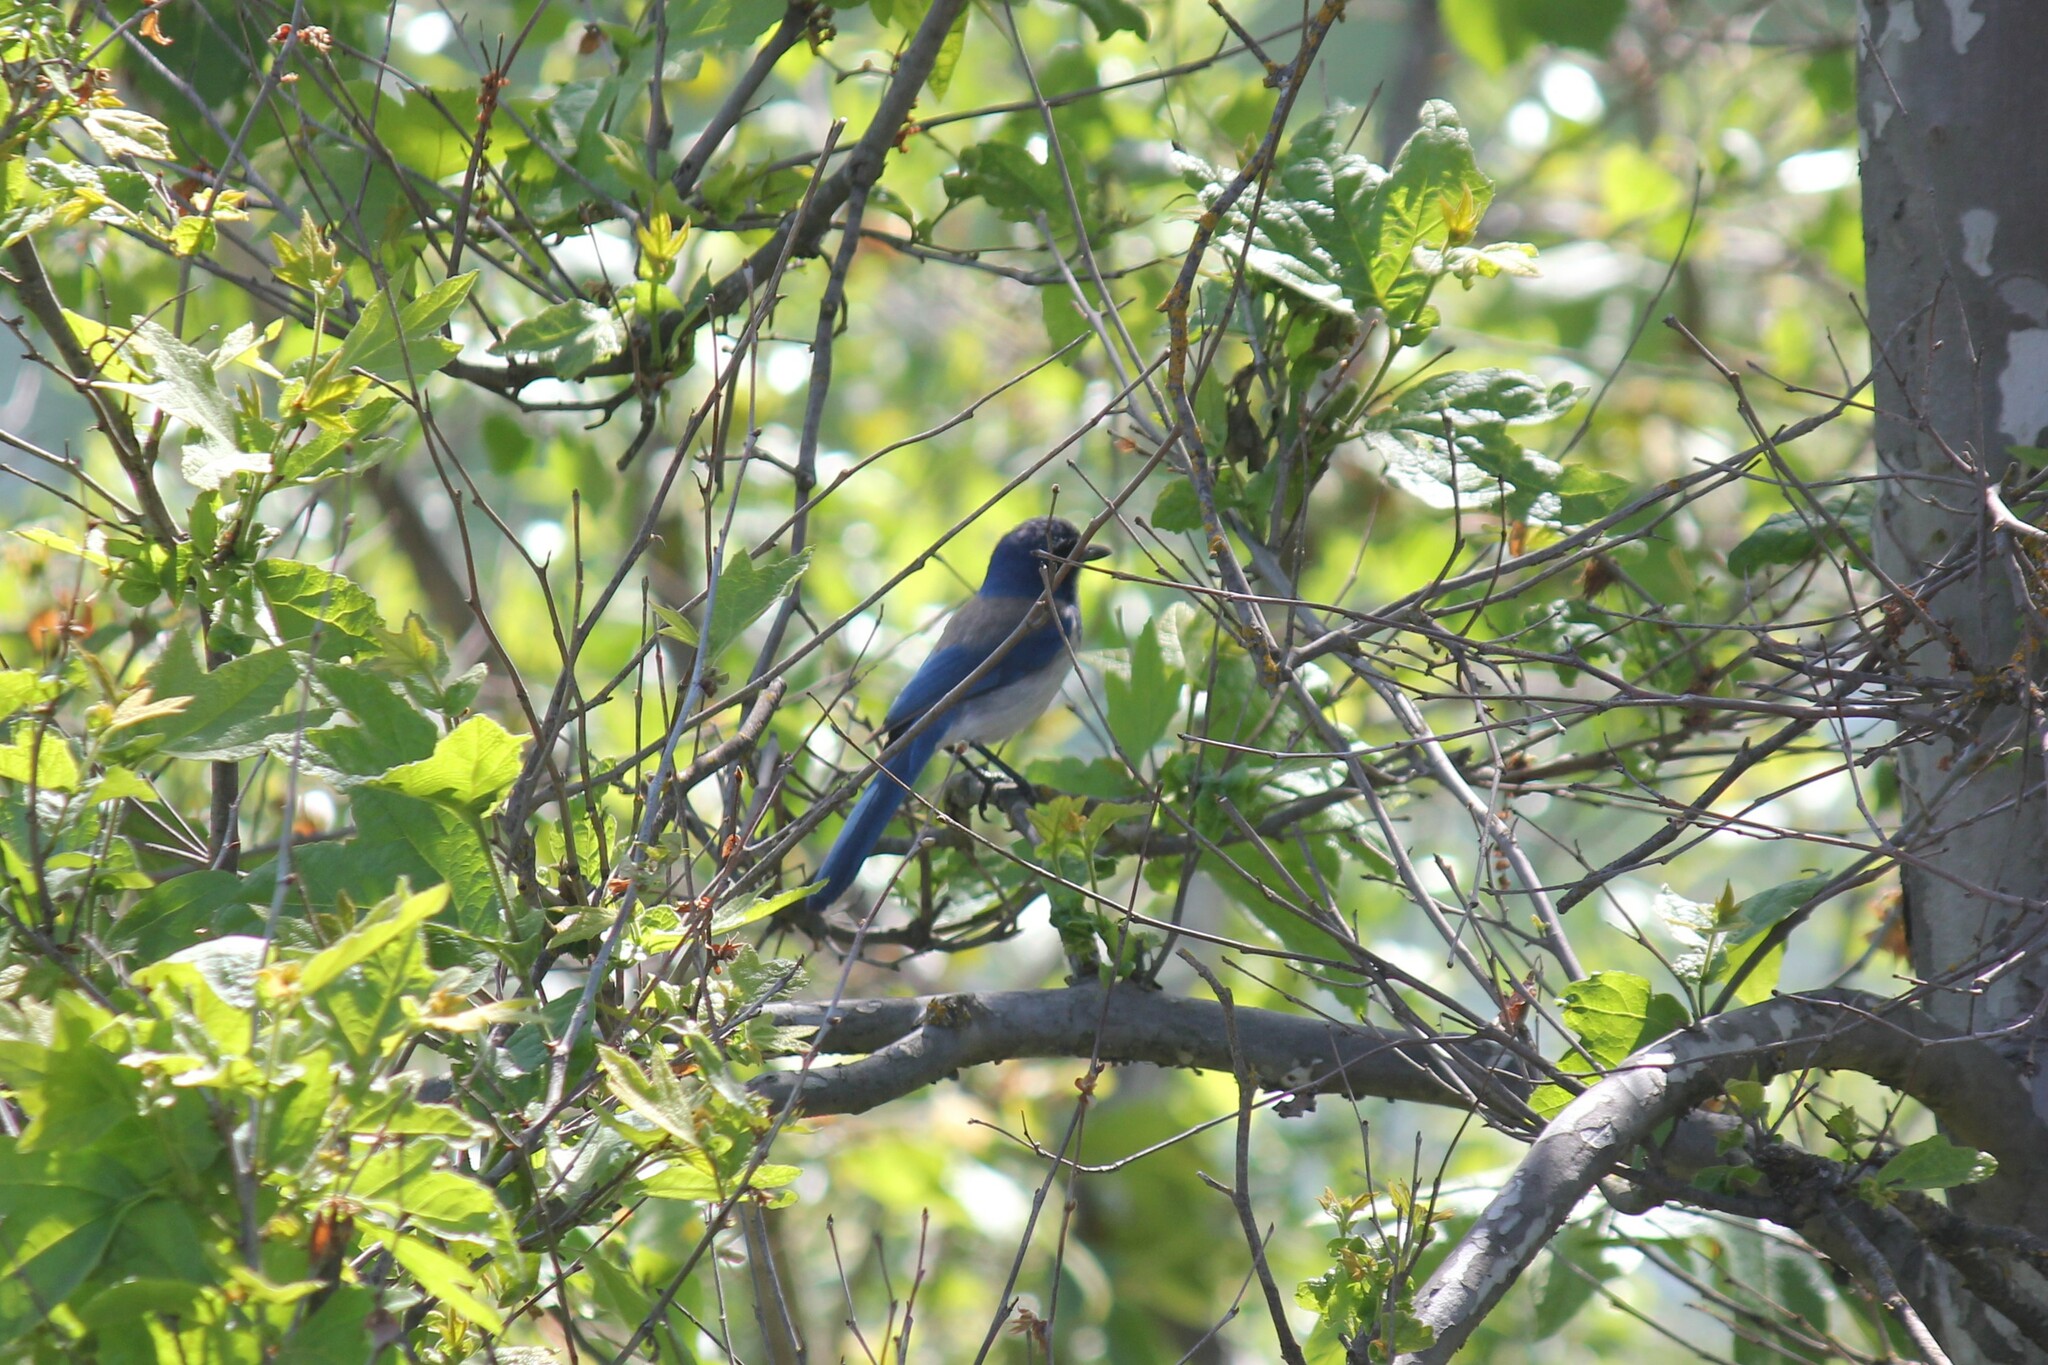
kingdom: Animalia
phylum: Chordata
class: Aves
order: Passeriformes
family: Corvidae
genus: Aphelocoma
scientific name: Aphelocoma californica
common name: California scrub-jay
